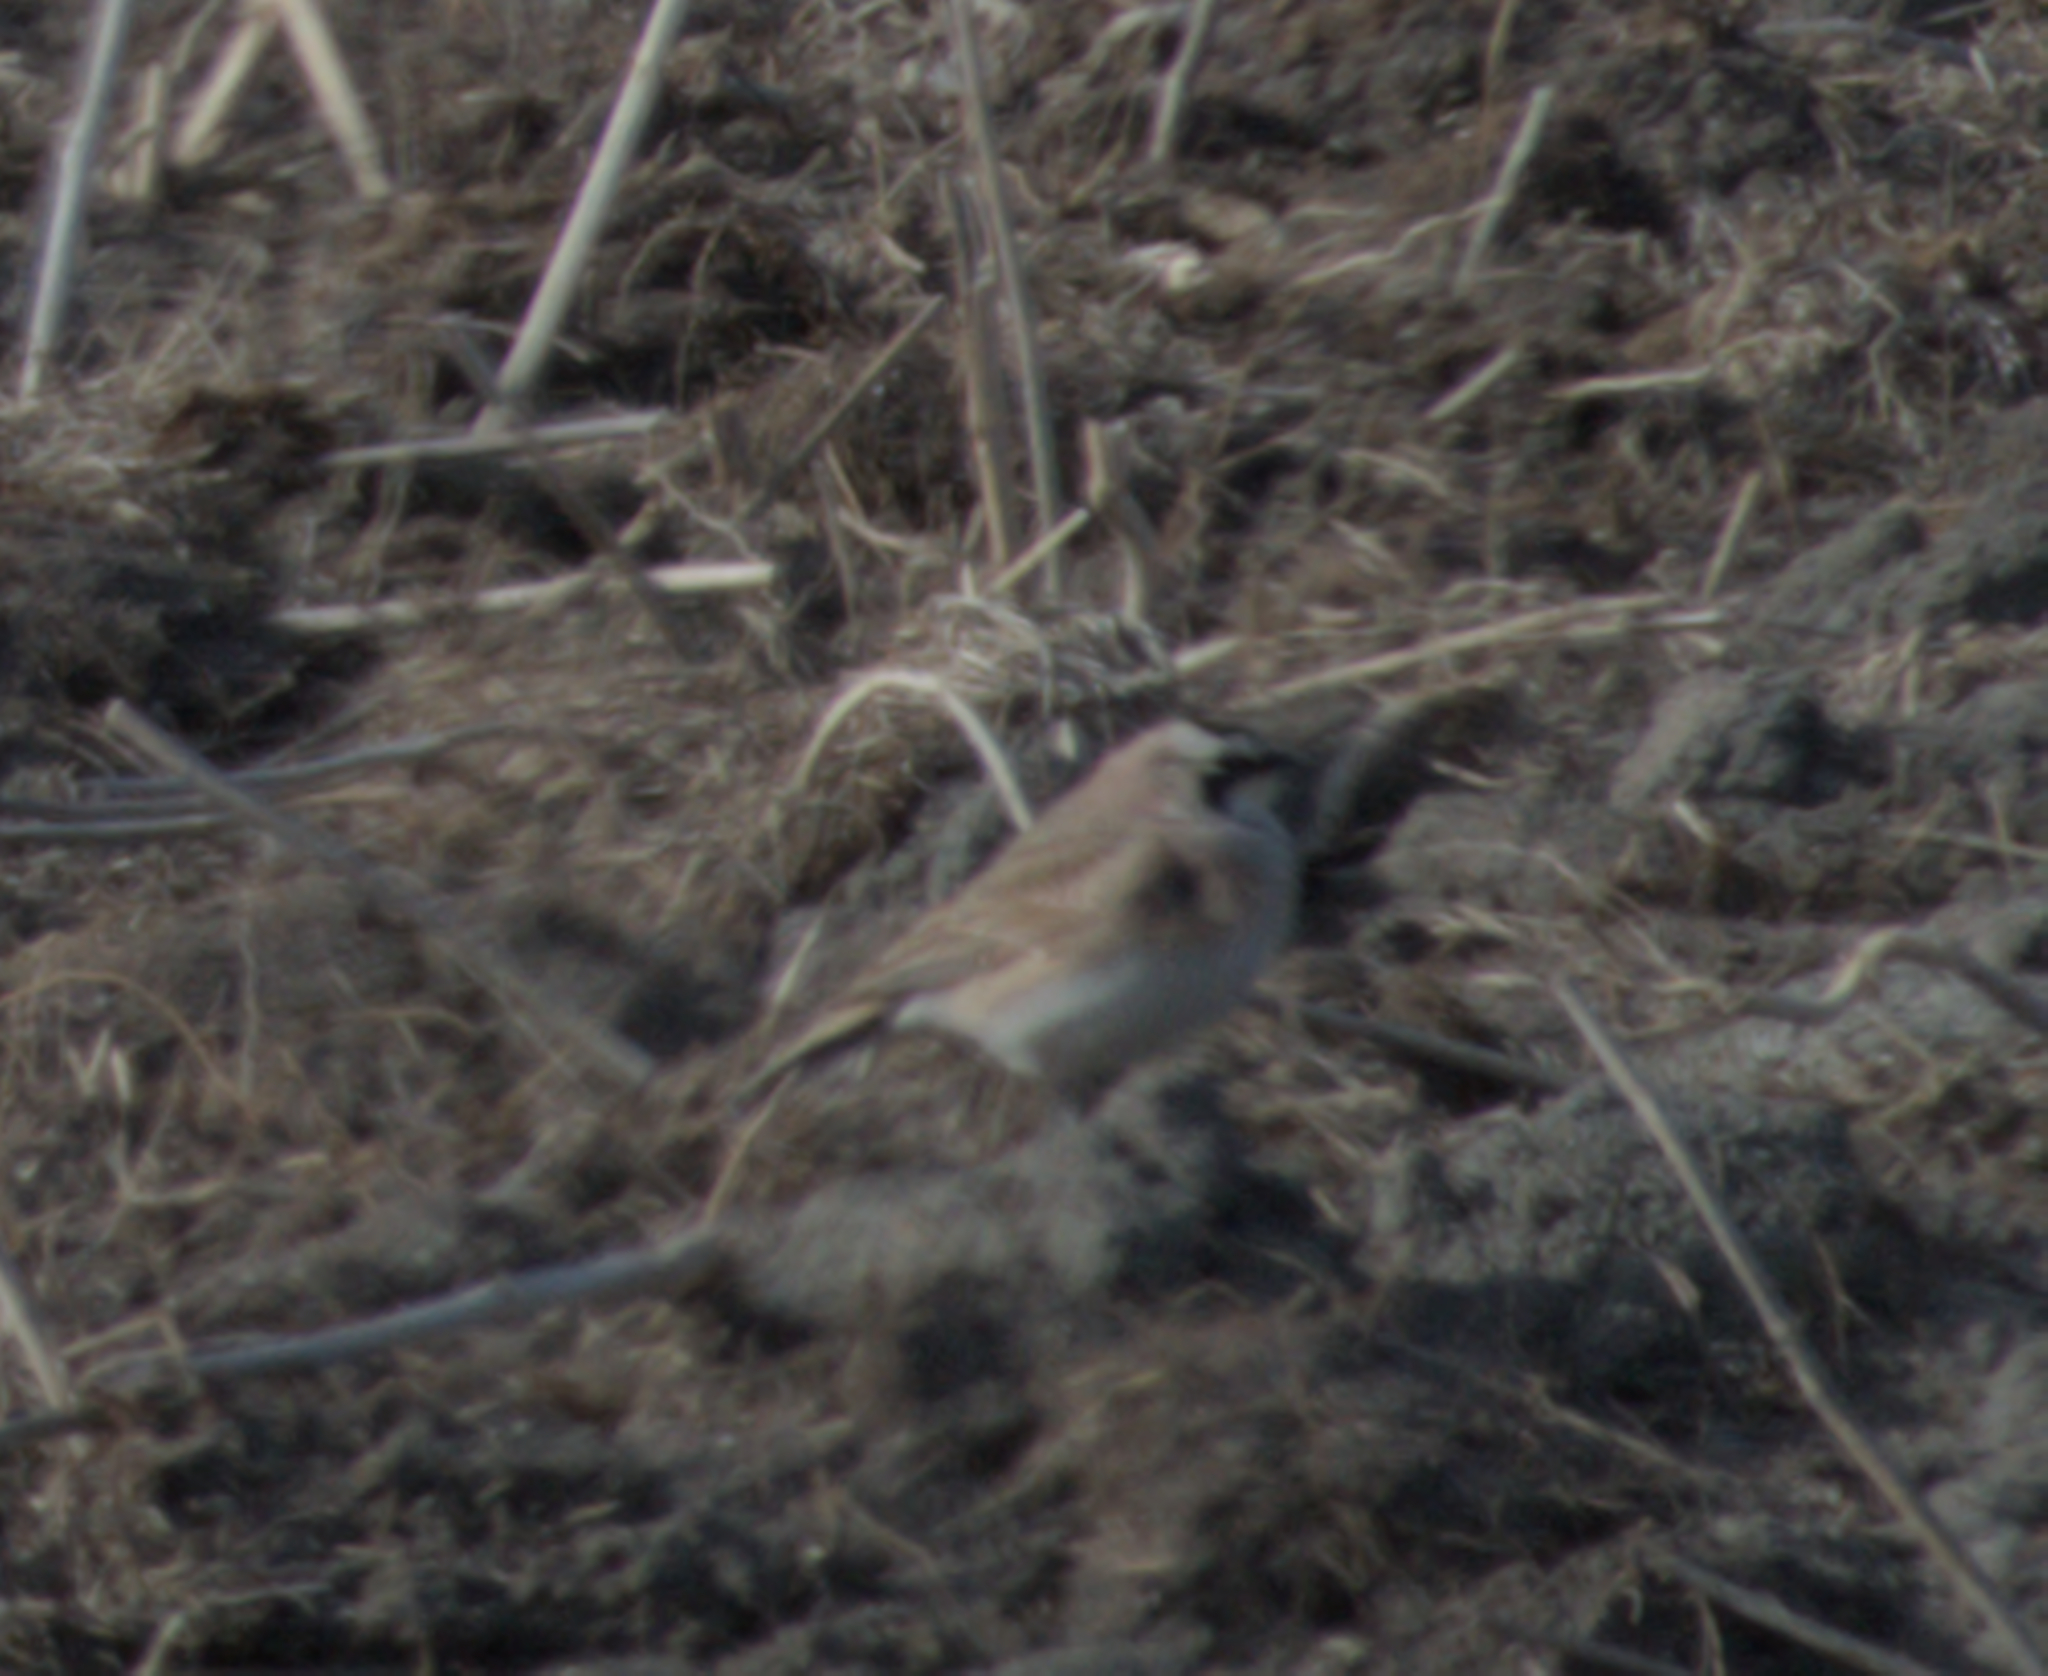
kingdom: Animalia
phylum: Chordata
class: Aves
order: Passeriformes
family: Alaudidae
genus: Eremophila
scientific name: Eremophila alpestris
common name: Horned lark
